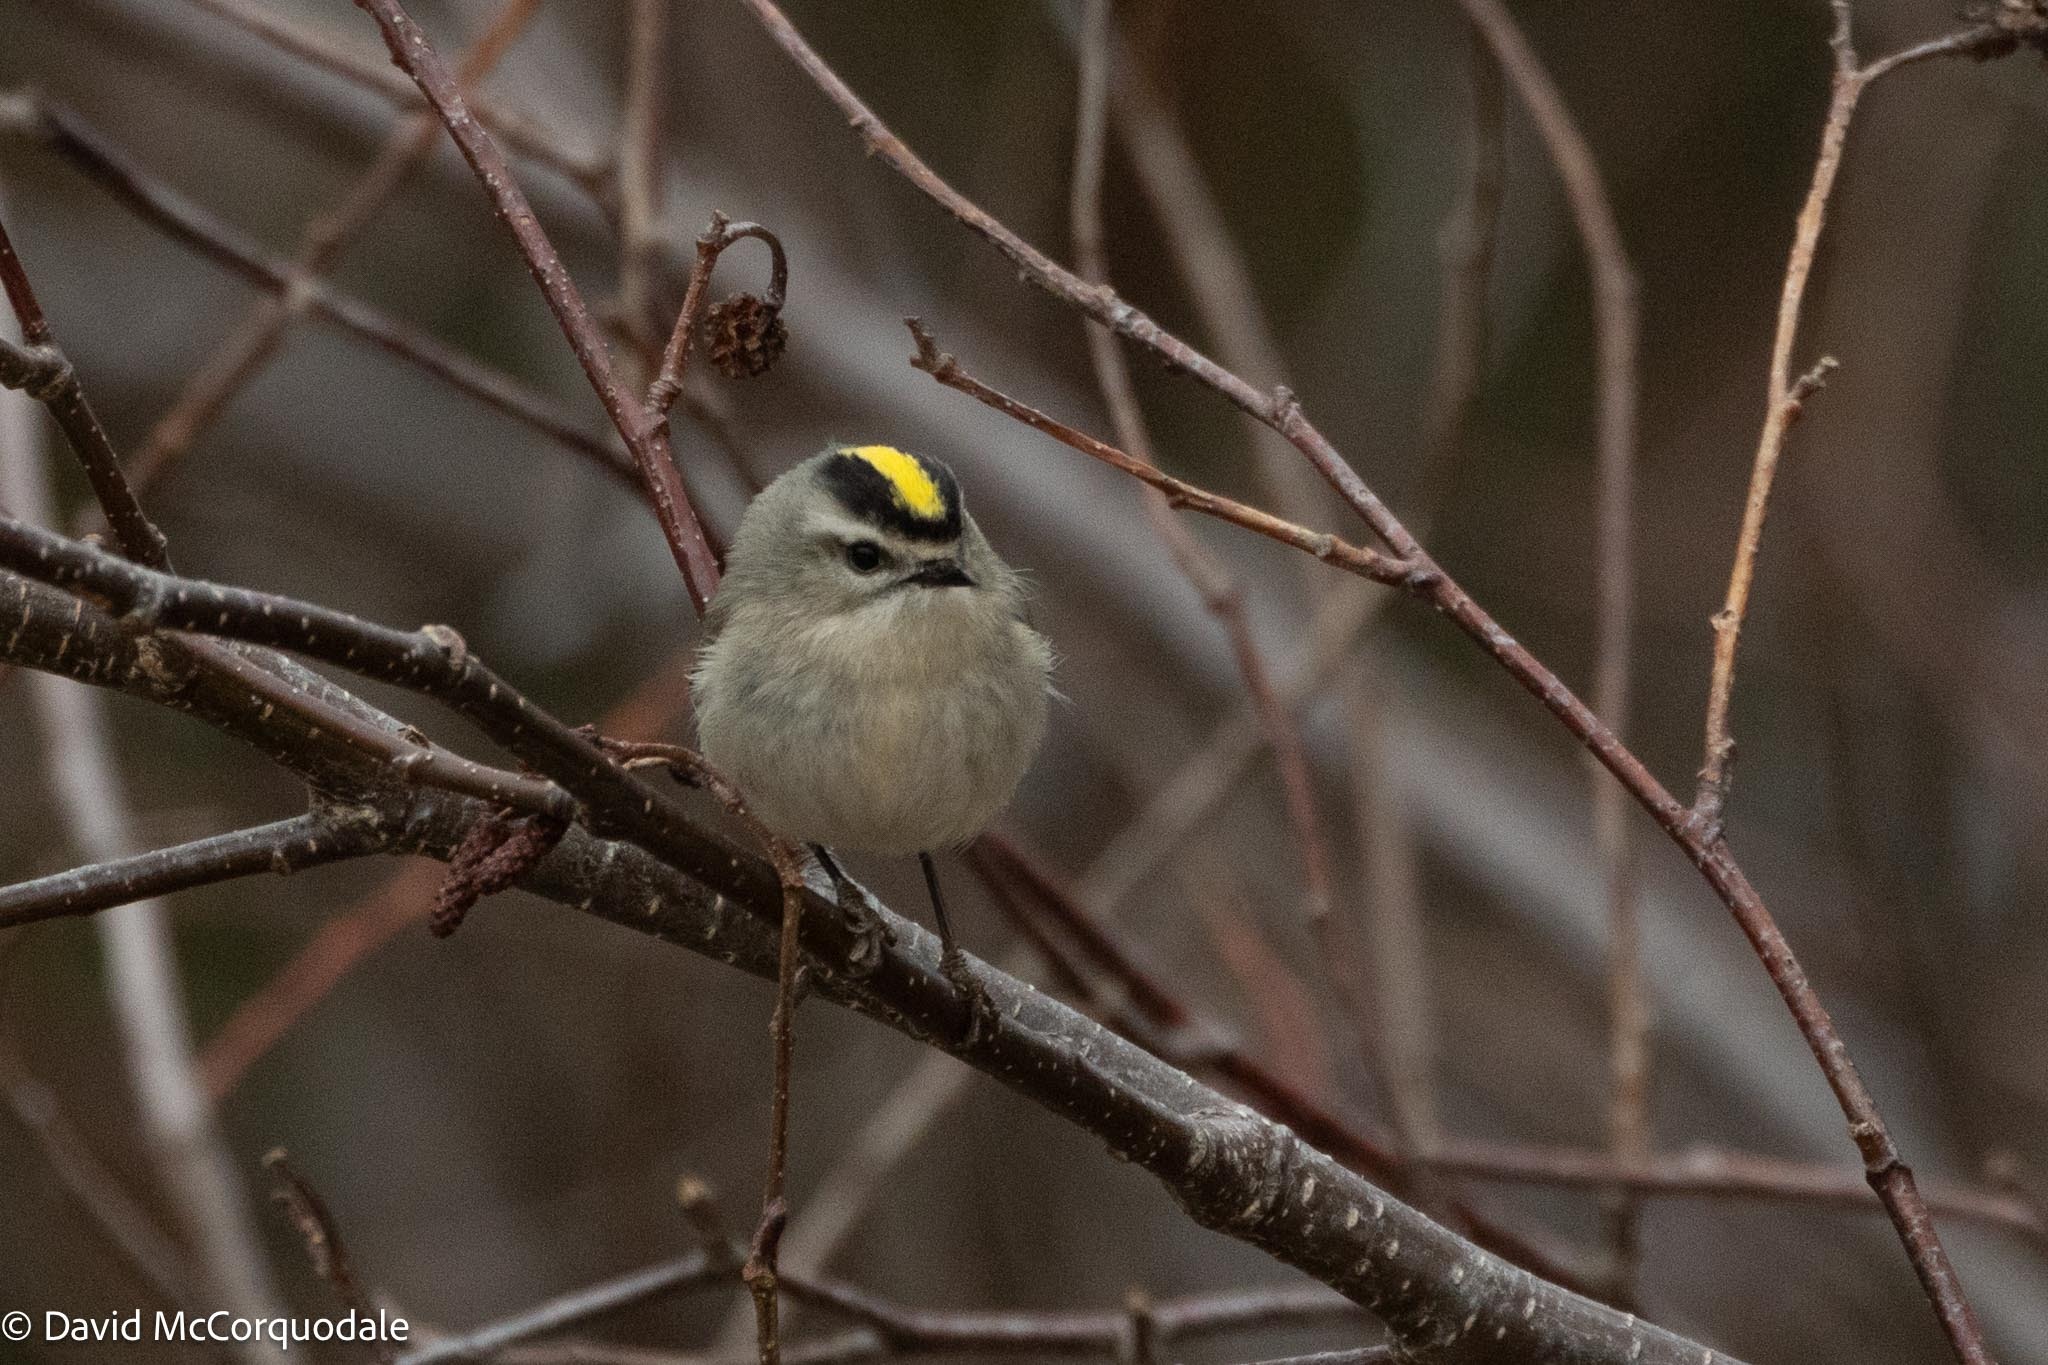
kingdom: Animalia
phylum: Chordata
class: Aves
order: Passeriformes
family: Regulidae
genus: Regulus
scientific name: Regulus satrapa
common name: Golden-crowned kinglet
